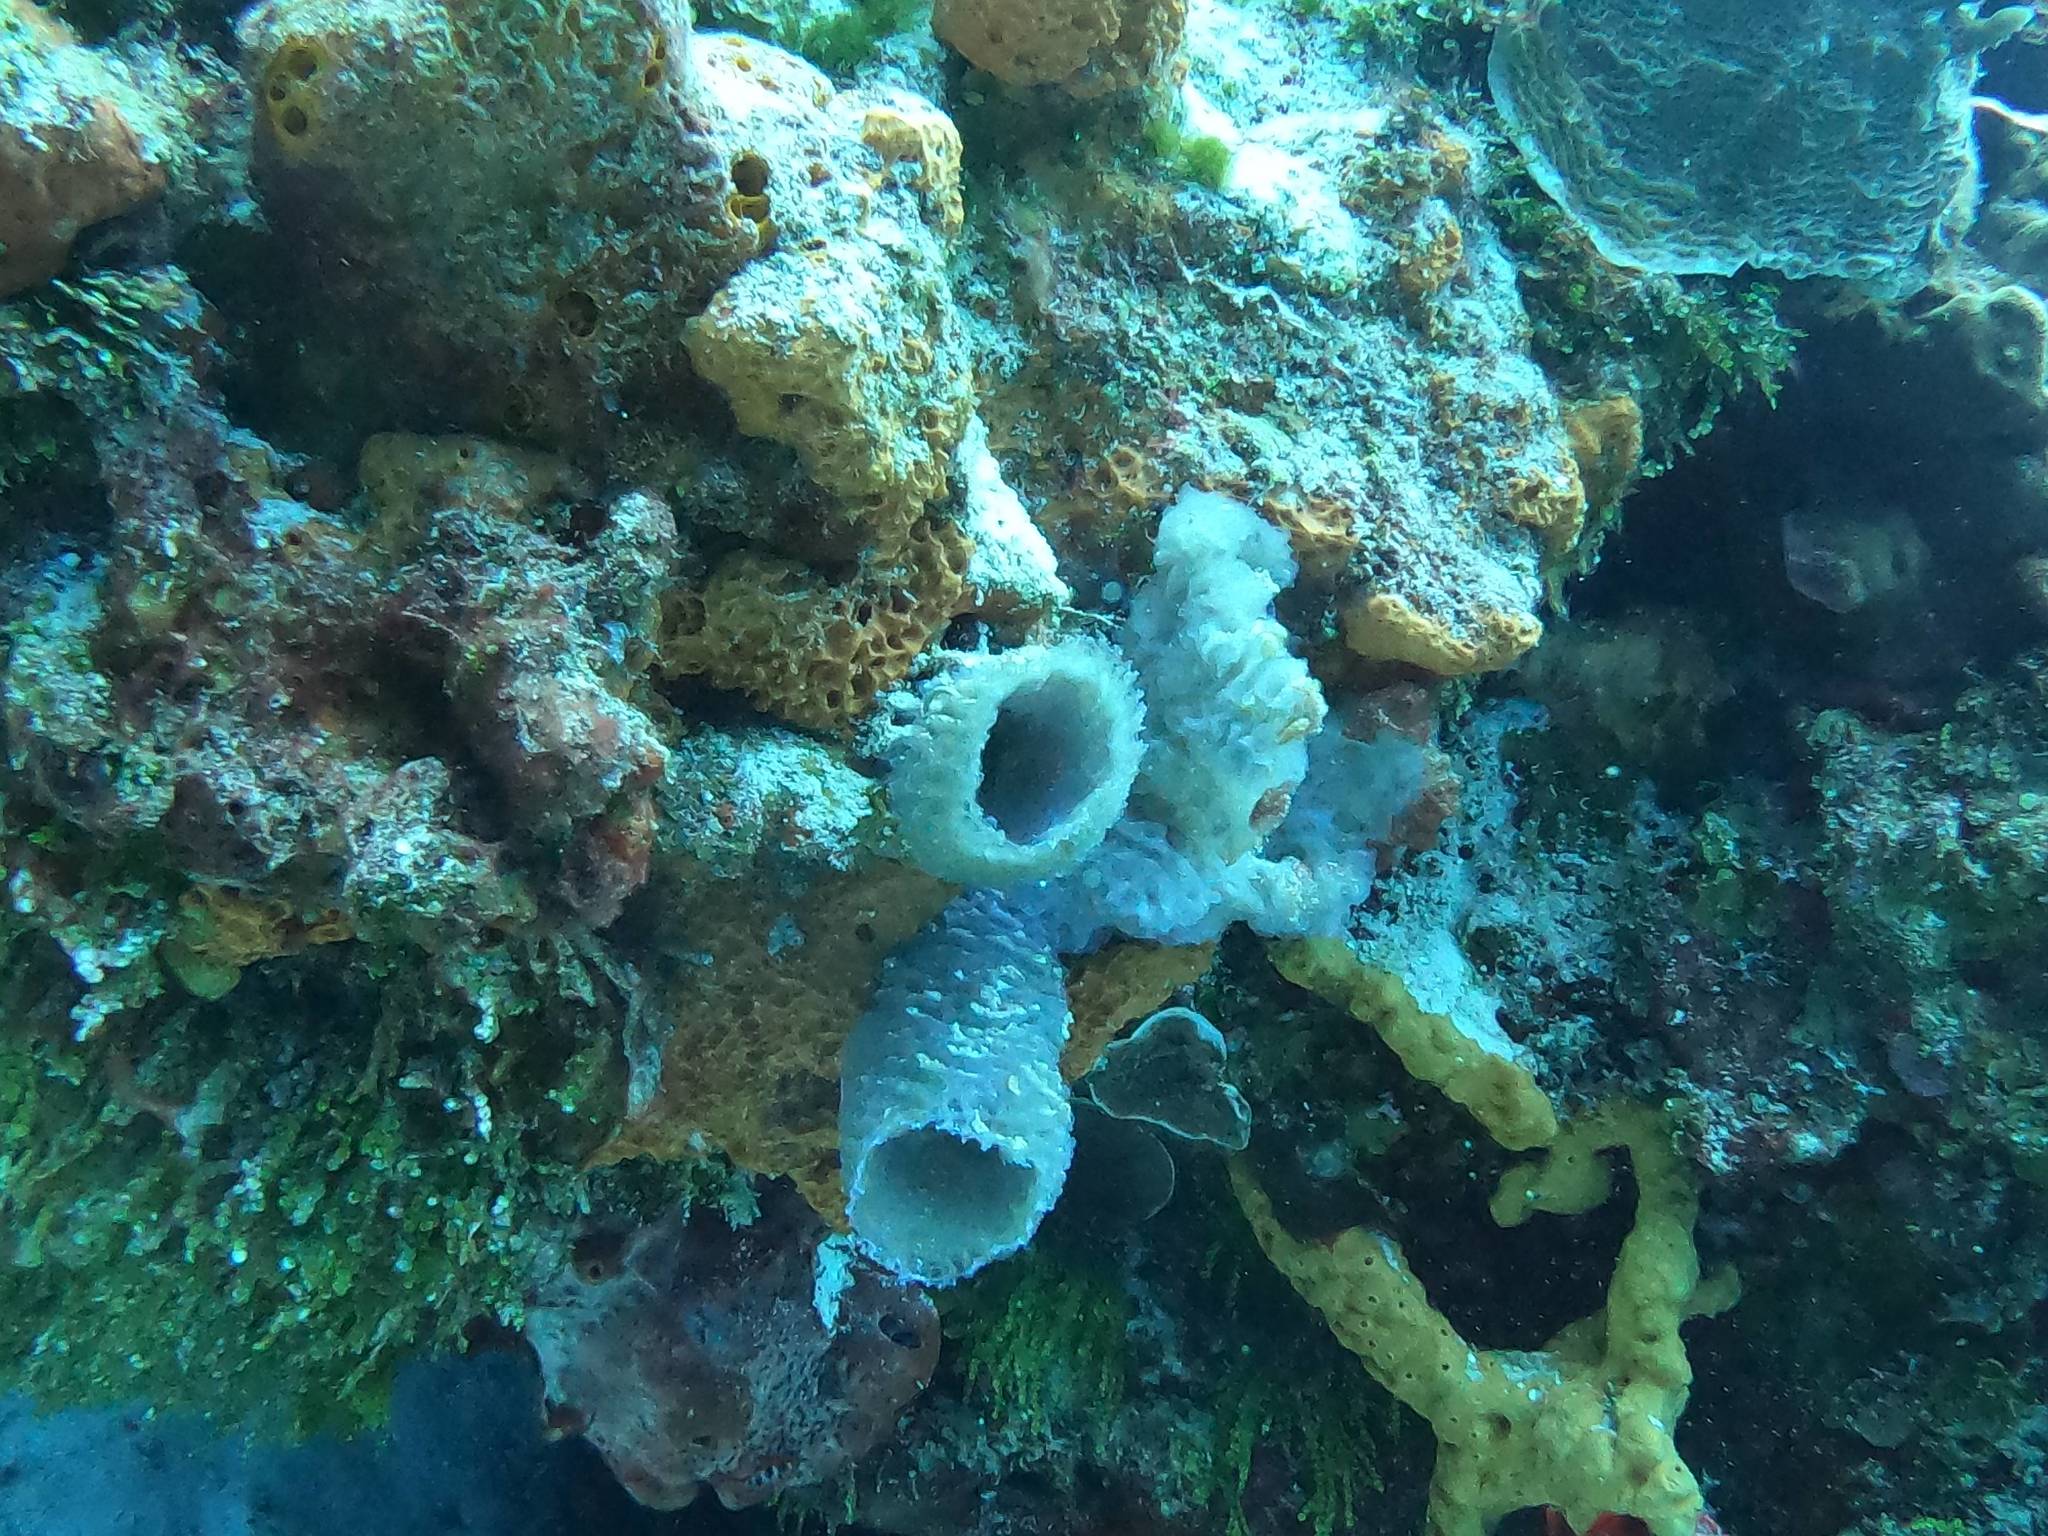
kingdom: Animalia
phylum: Porifera
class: Demospongiae
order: Haplosclerida
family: Callyspongiidae
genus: Callyspongia
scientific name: Callyspongia plicifera
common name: Azure vase sponge
